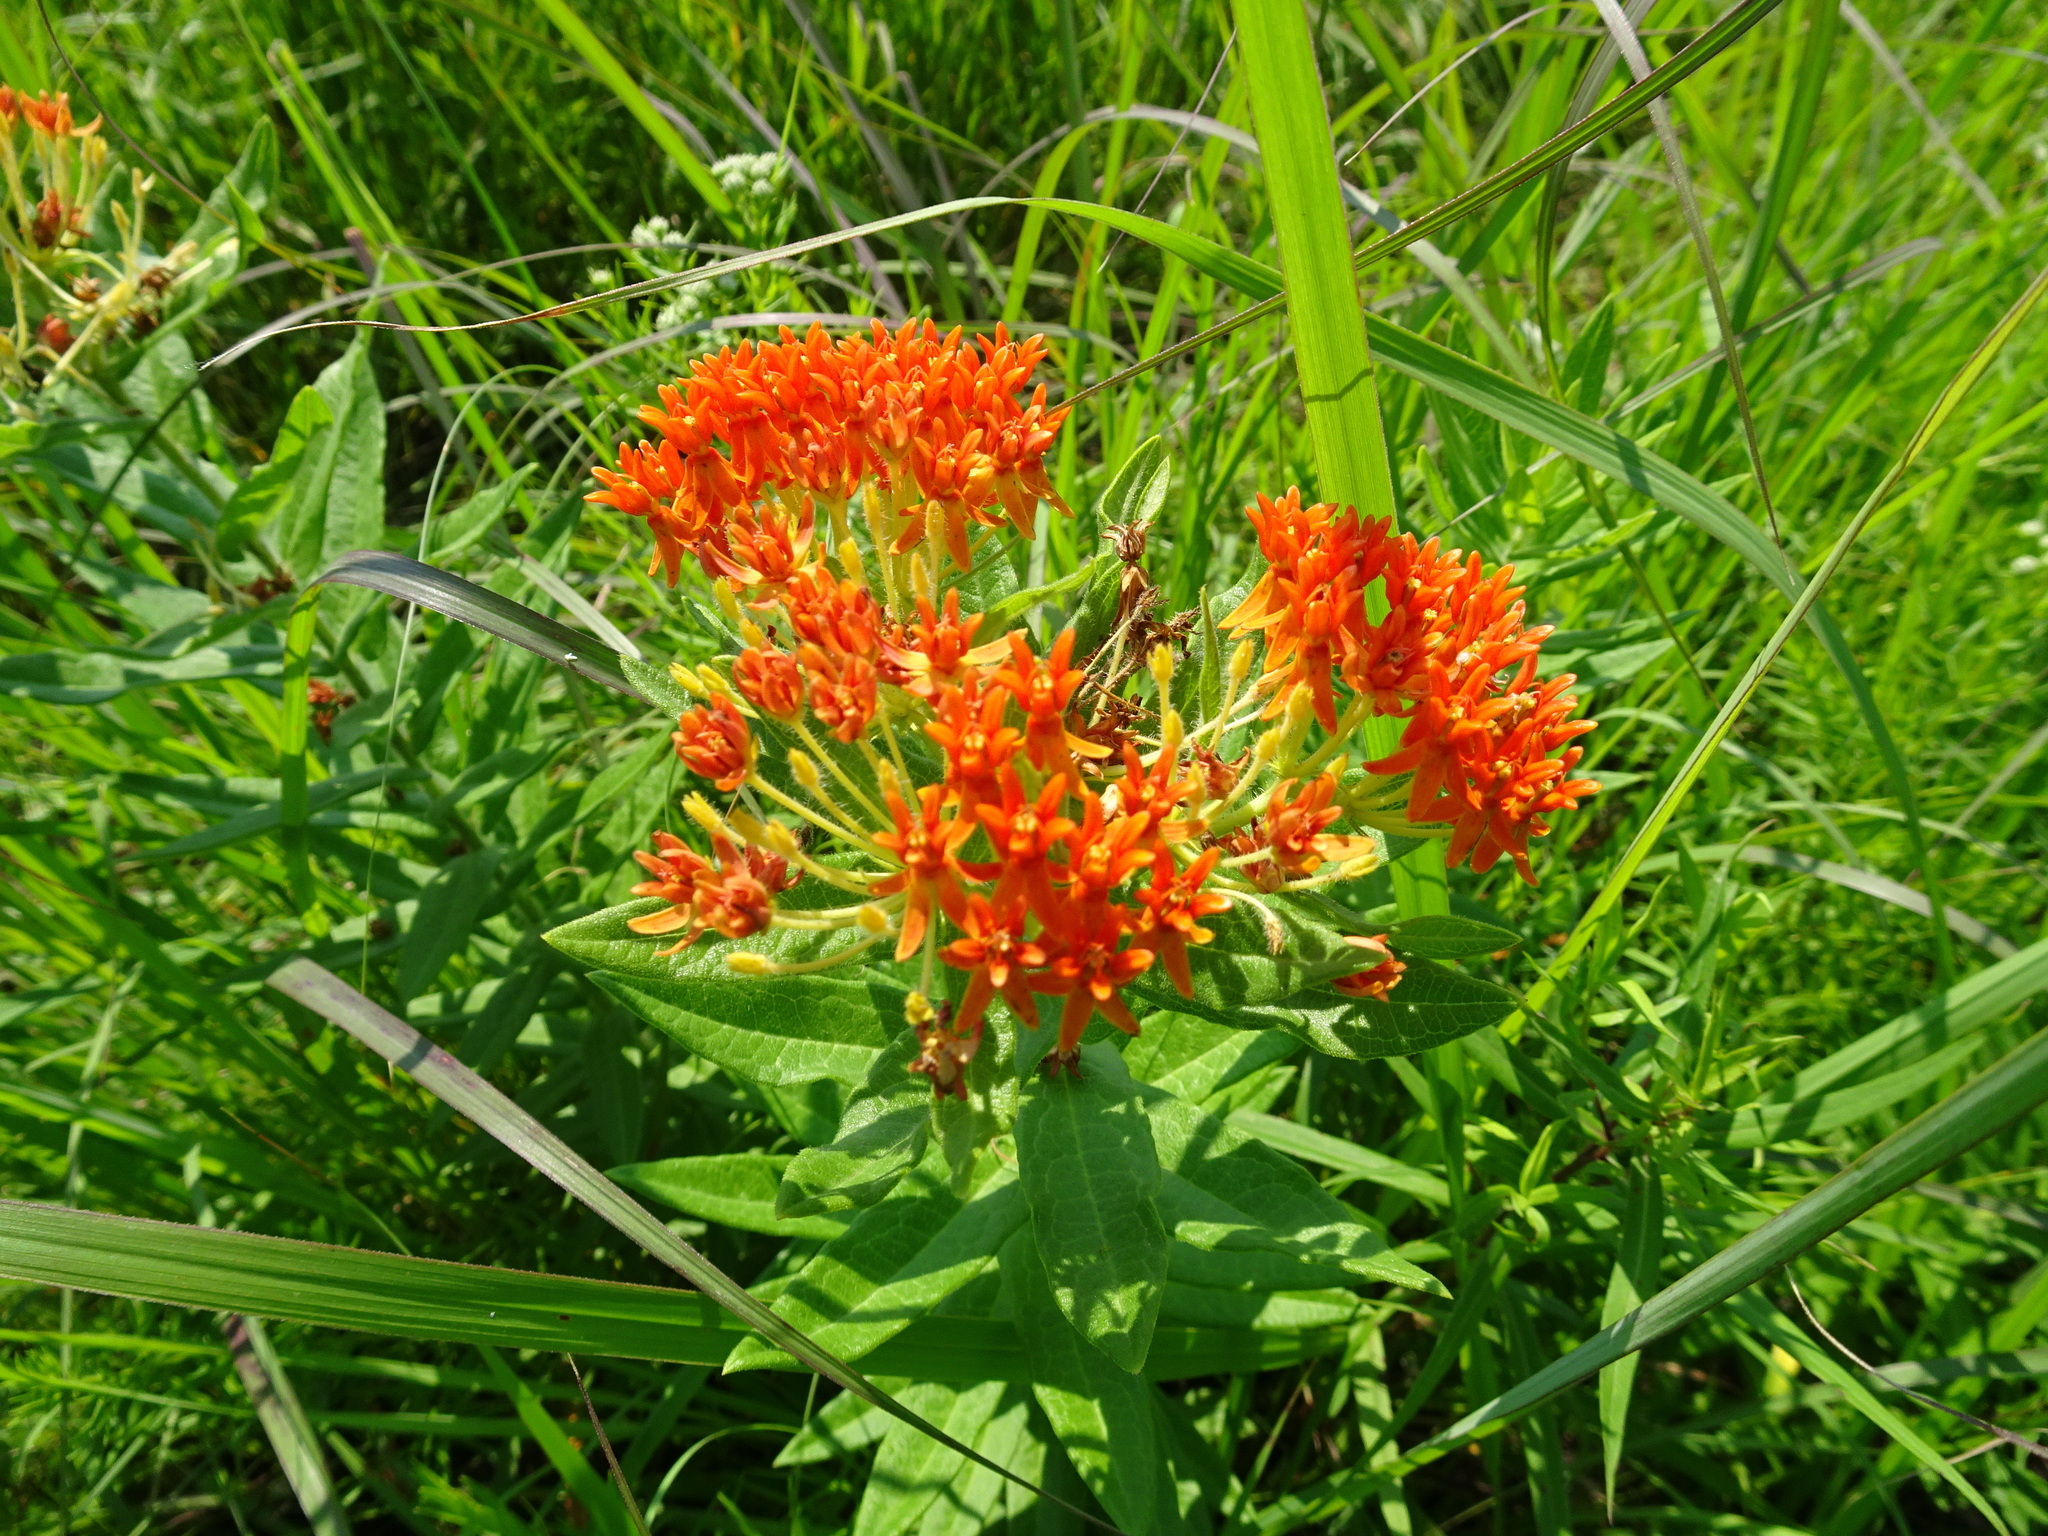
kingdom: Plantae
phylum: Tracheophyta
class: Magnoliopsida
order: Gentianales
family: Apocynaceae
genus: Asclepias
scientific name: Asclepias tuberosa
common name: Butterfly milkweed
